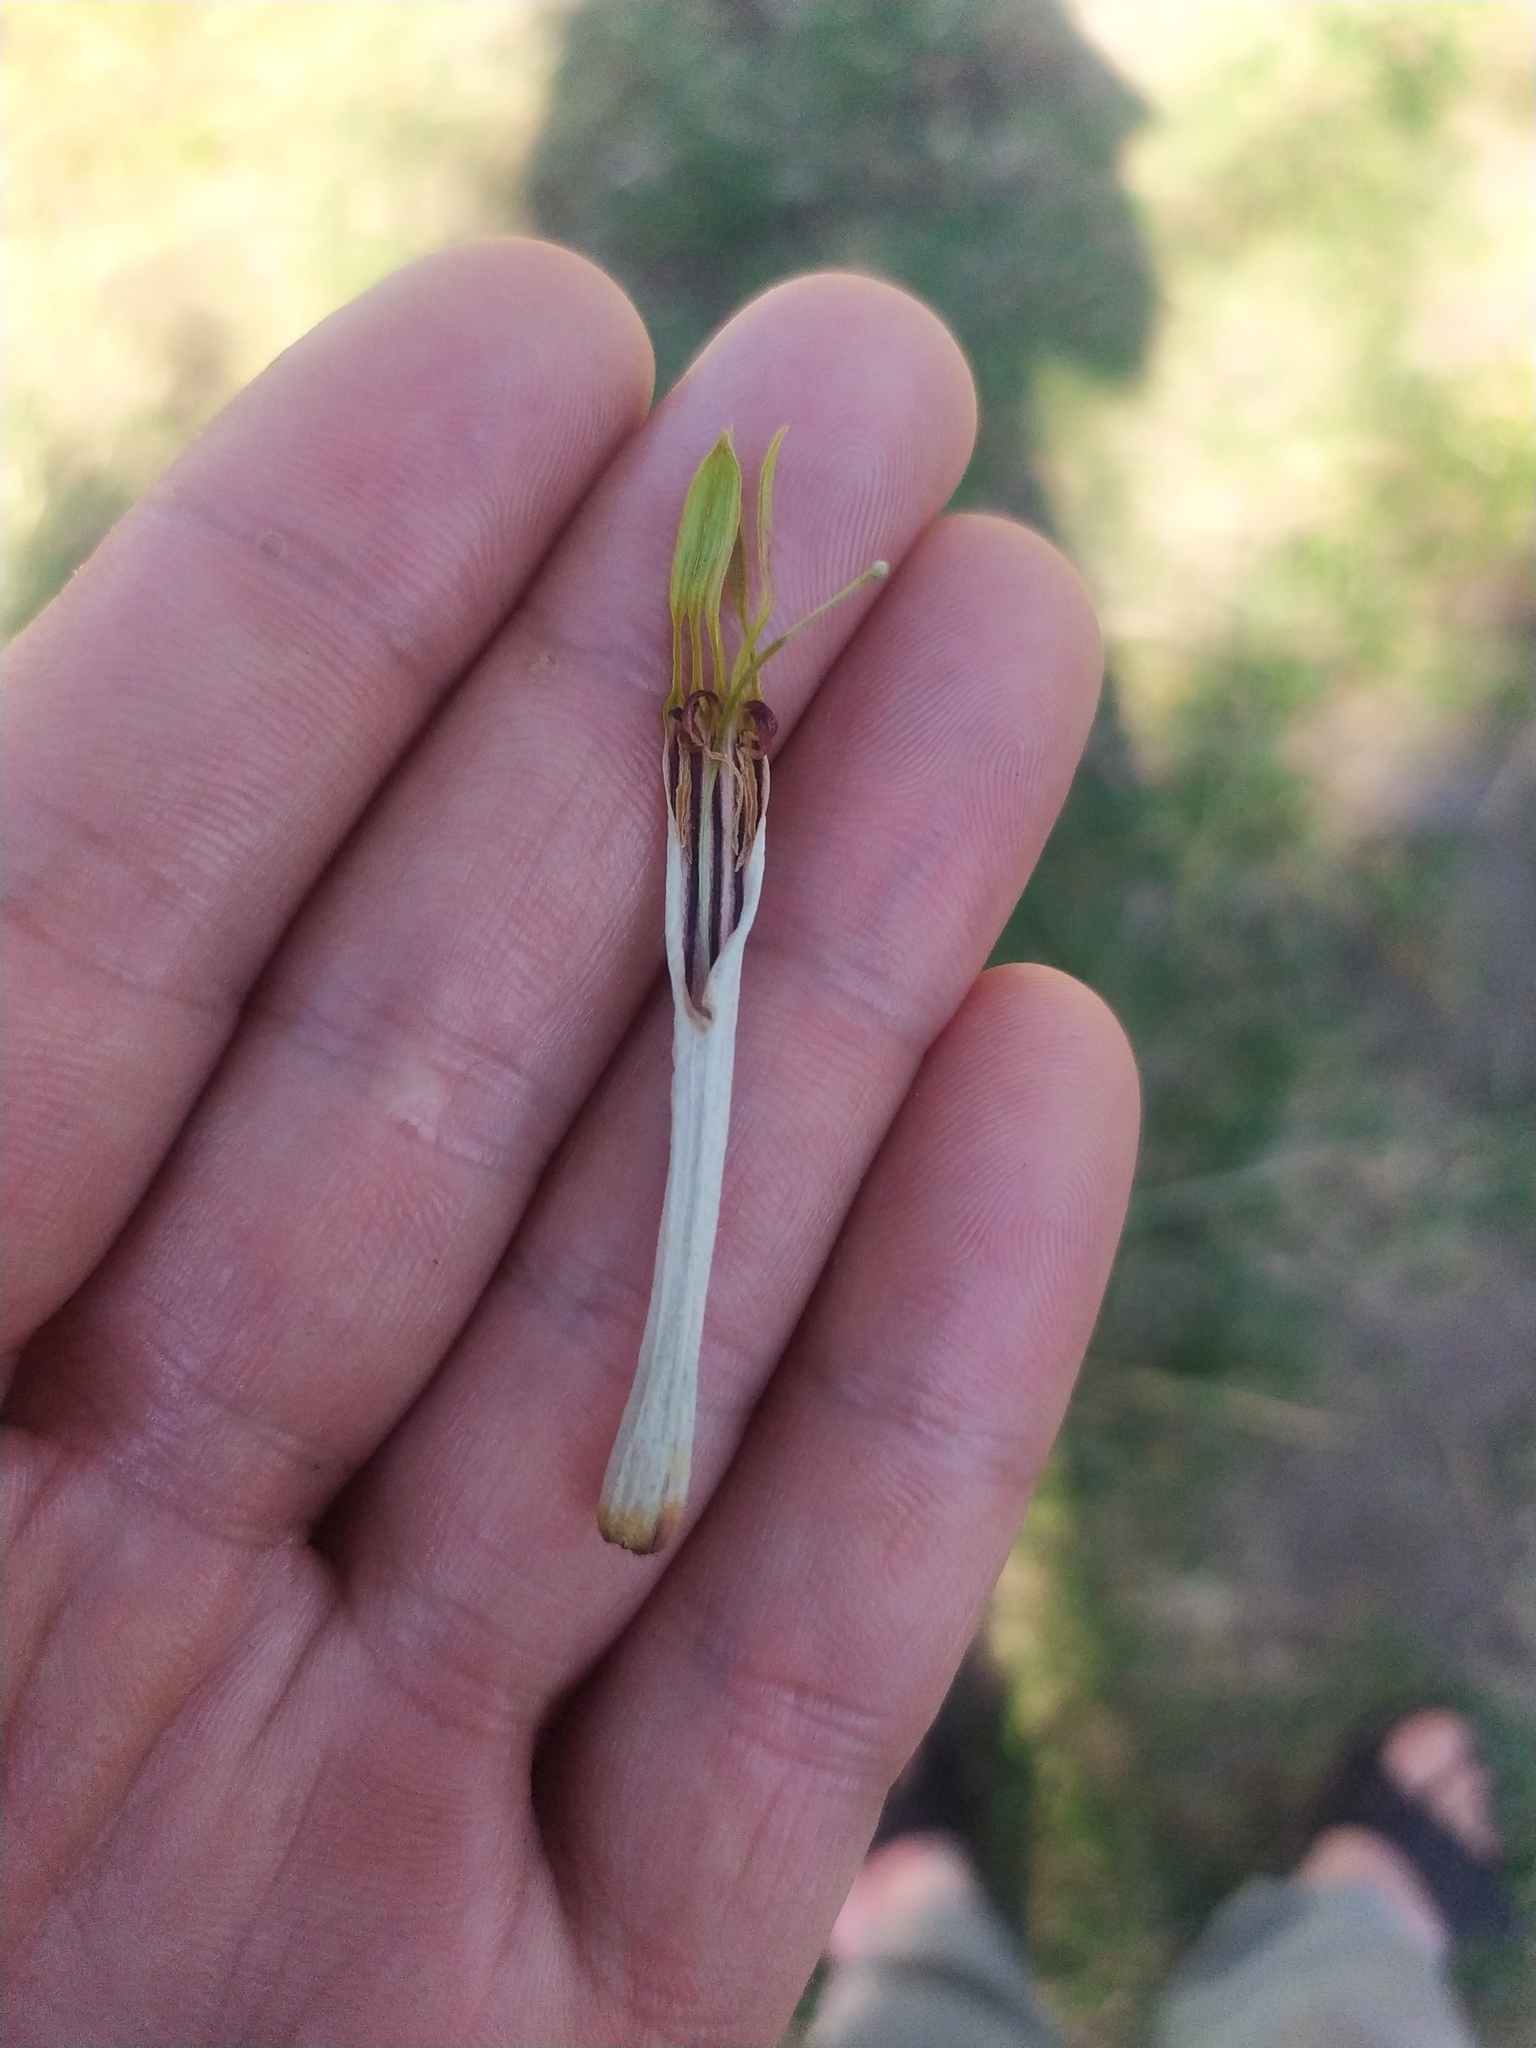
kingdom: Plantae
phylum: Tracheophyta
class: Magnoliopsida
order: Santalales
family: Loranthaceae
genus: Agelanthus
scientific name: Agelanthus natalitius
